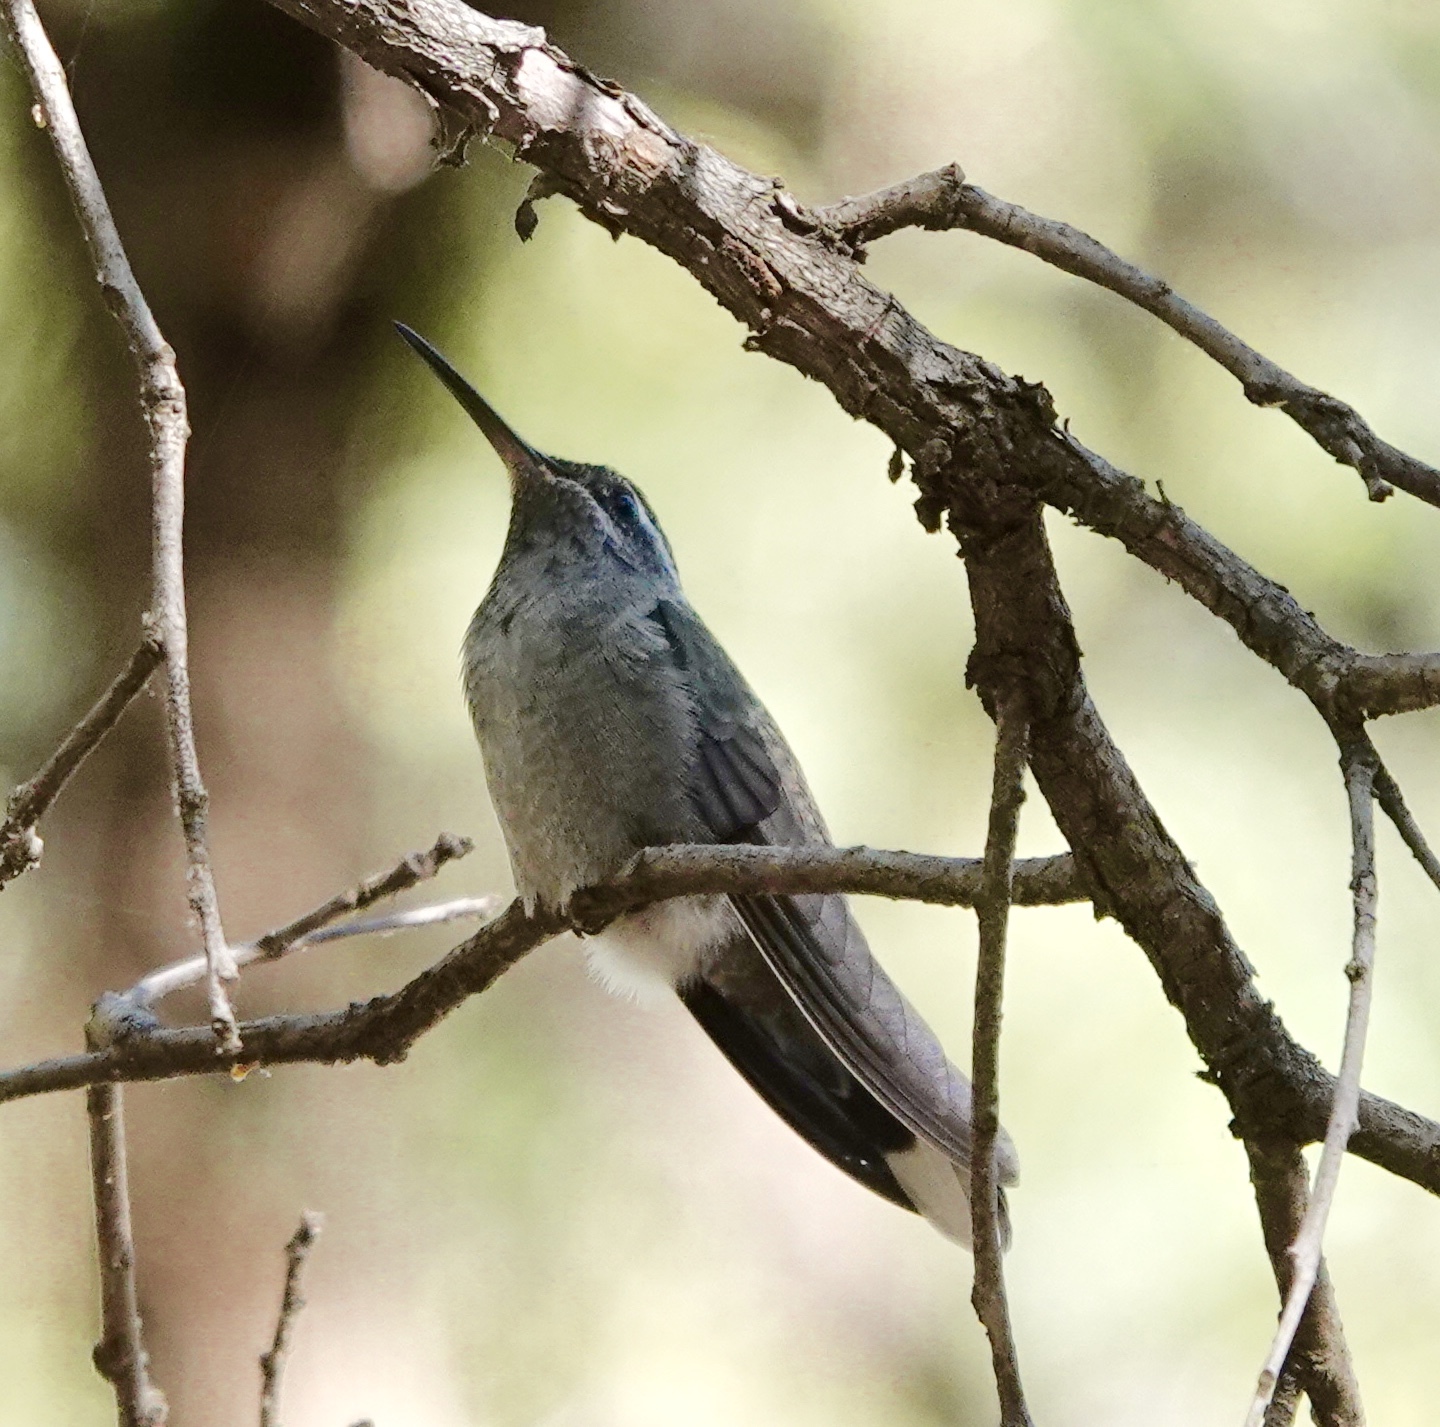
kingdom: Animalia
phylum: Chordata
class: Aves
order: Apodiformes
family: Trochilidae
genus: Lampornis
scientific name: Lampornis clemenciae
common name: Blue-throated mountaingem
